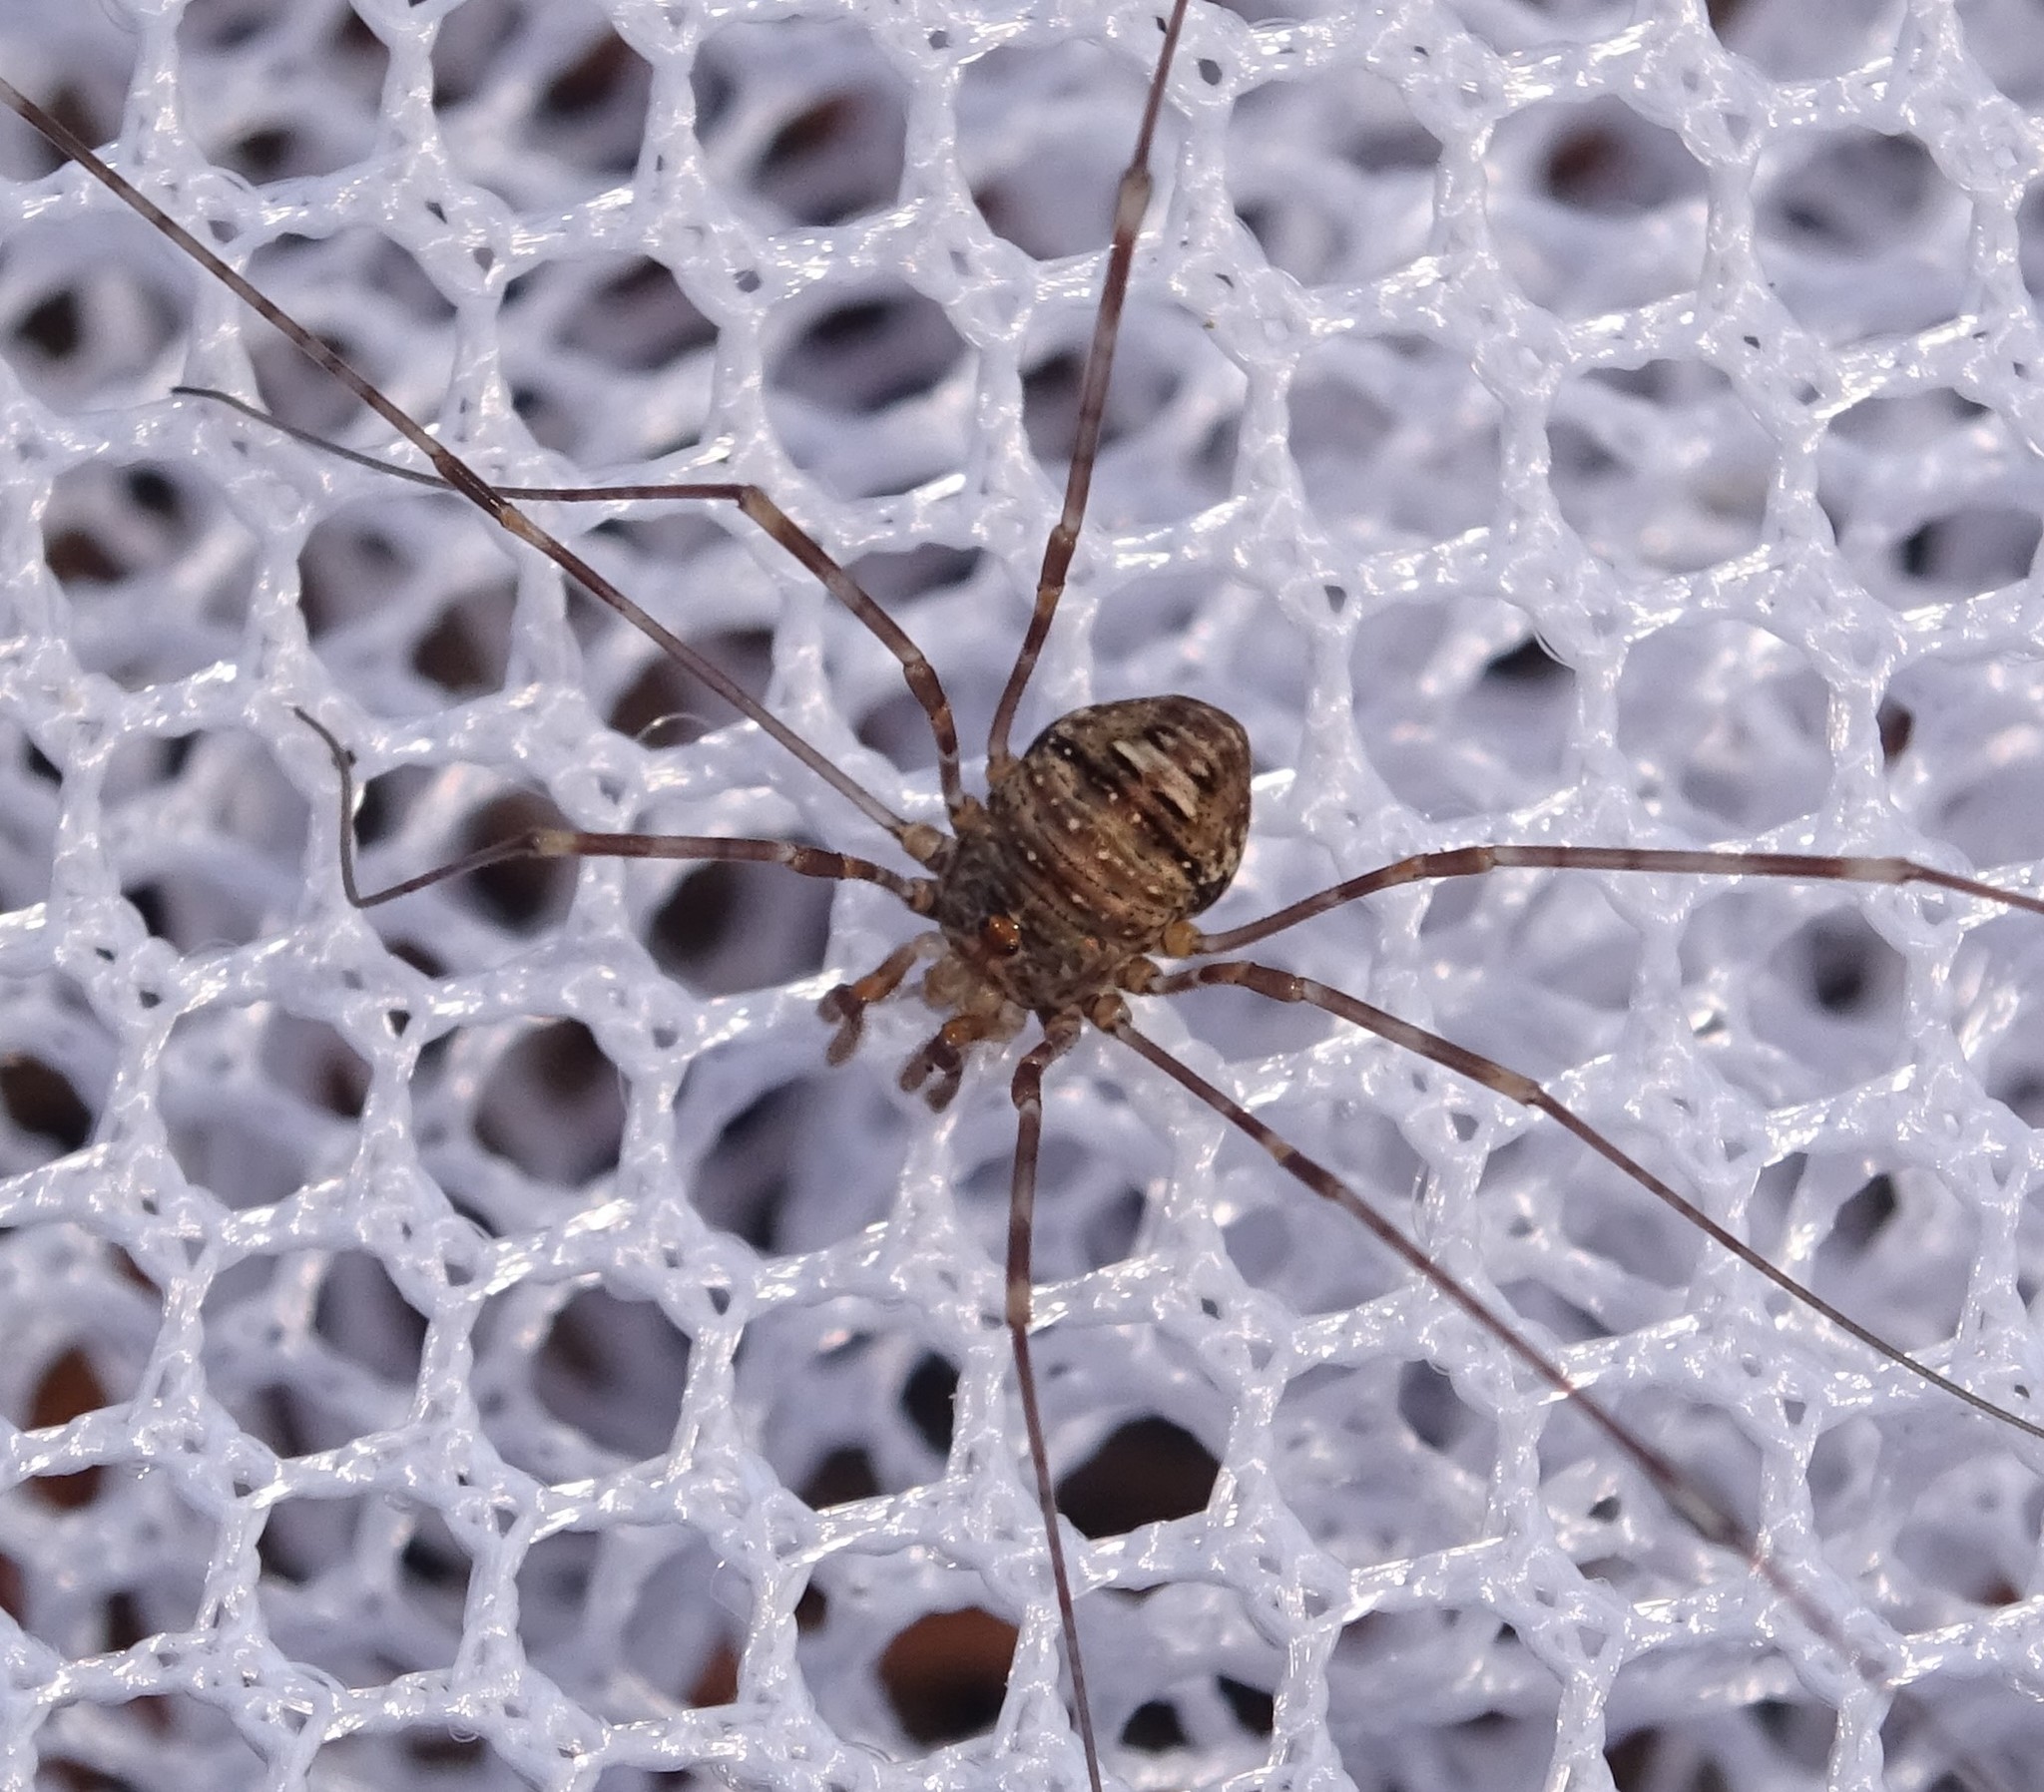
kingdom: Animalia
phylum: Arthropoda
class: Arachnida
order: Opiliones
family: Phalangiidae
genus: Dicranopalpus
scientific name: Dicranopalpus ramosus
